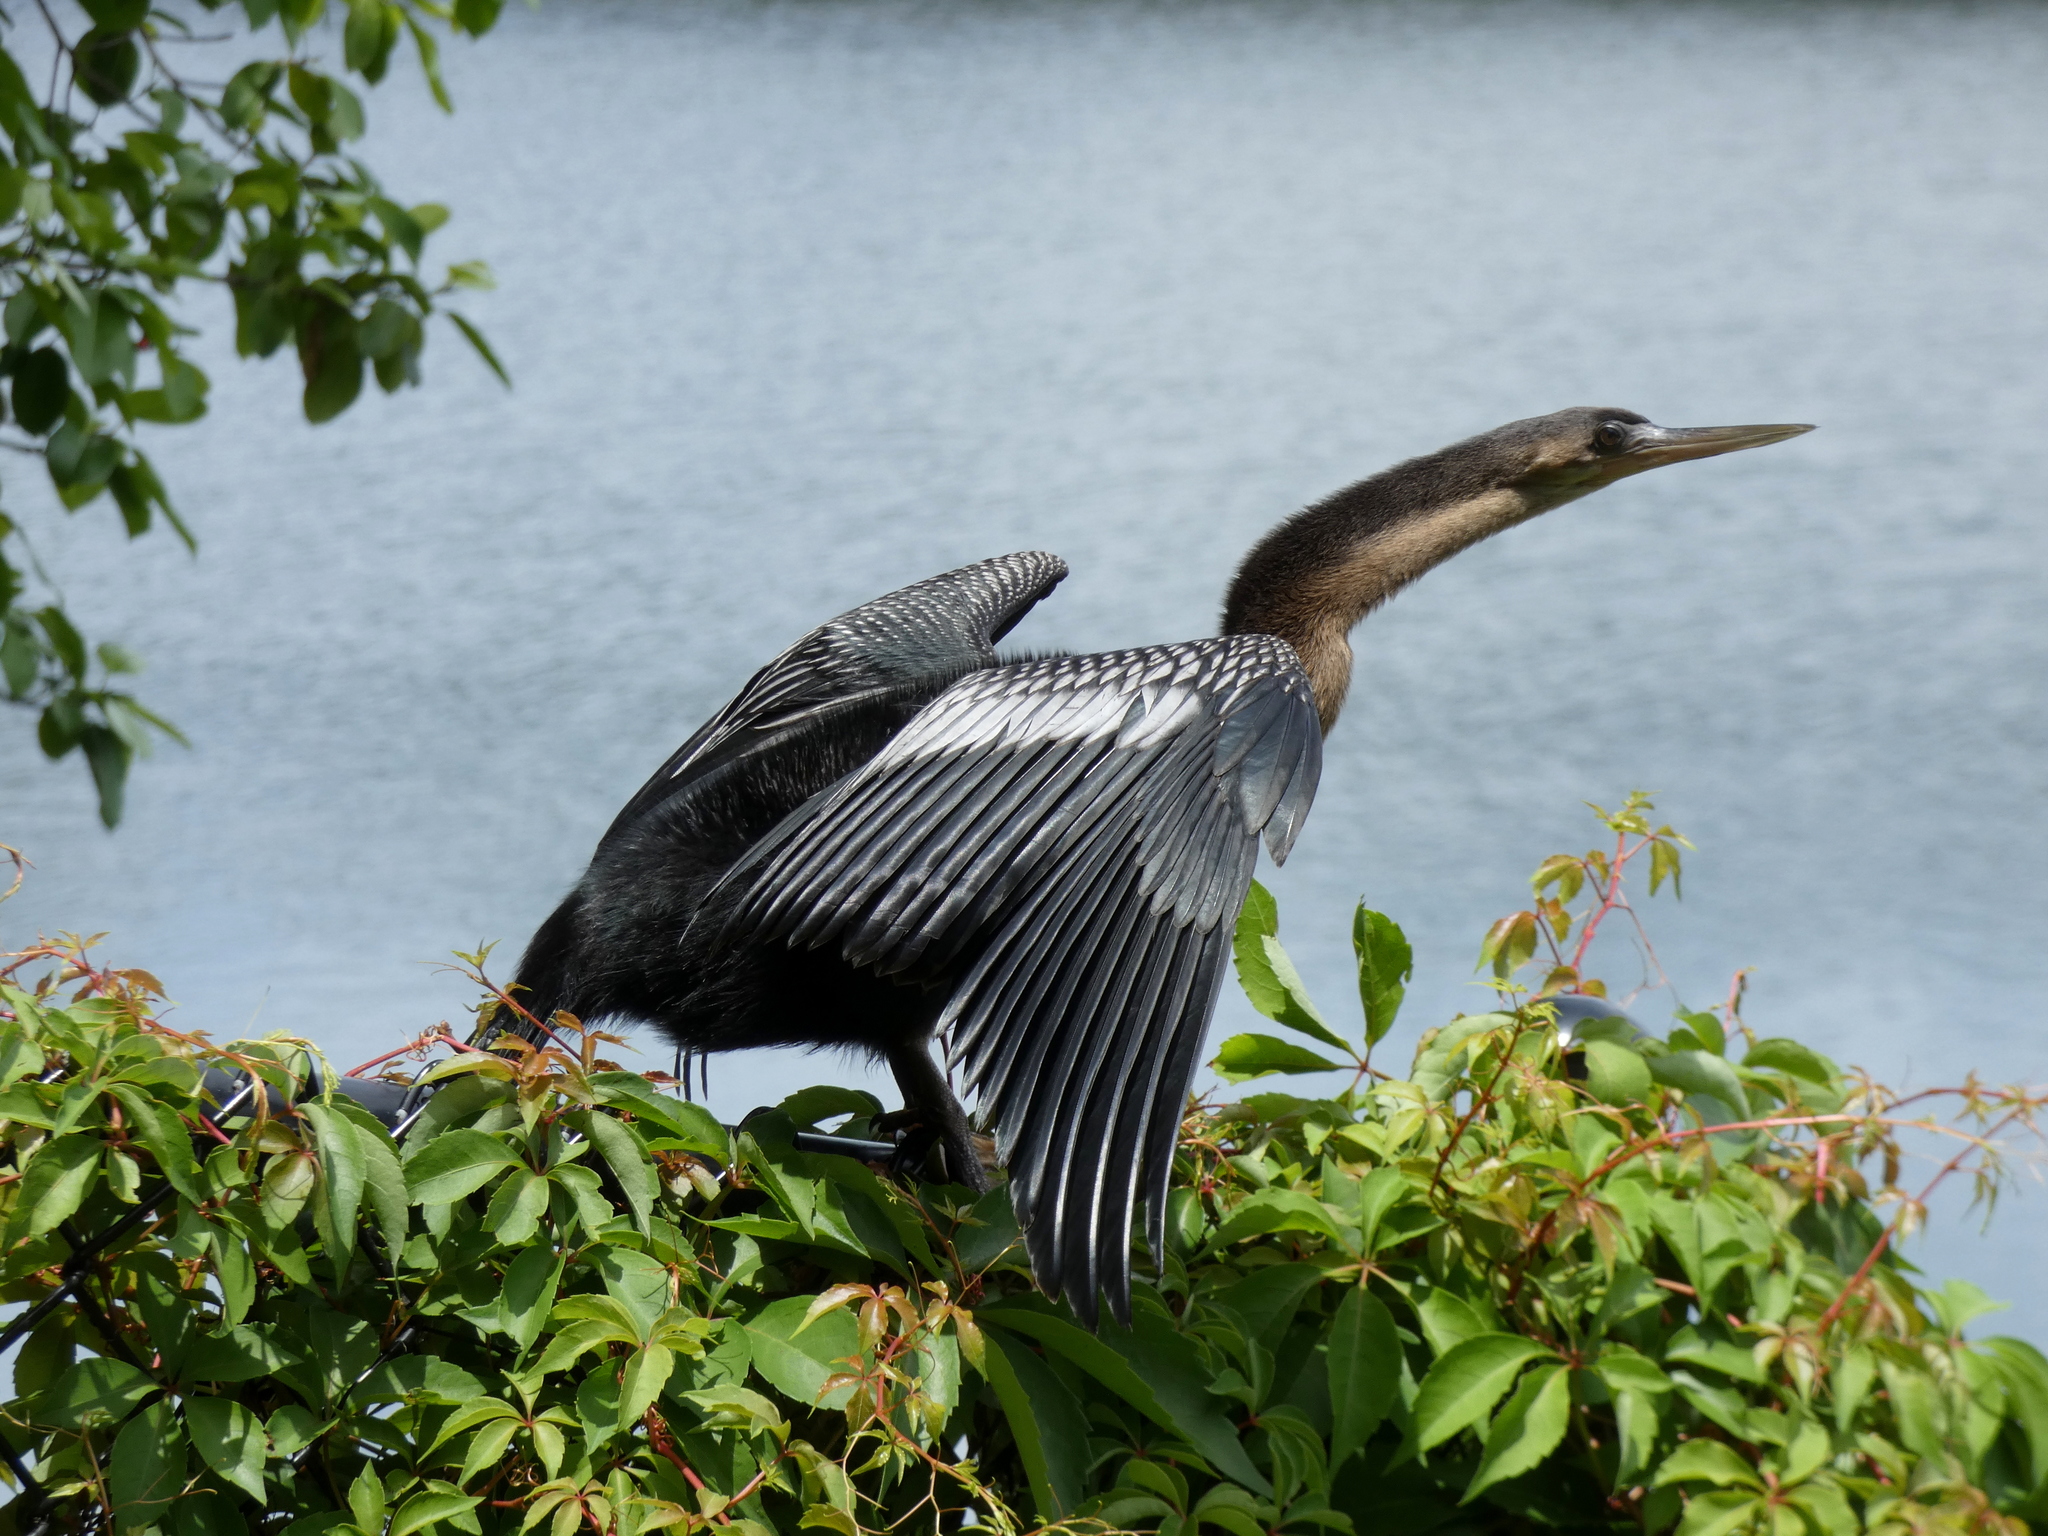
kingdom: Animalia
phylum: Chordata
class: Aves
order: Suliformes
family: Anhingidae
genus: Anhinga
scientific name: Anhinga anhinga
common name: Anhinga
